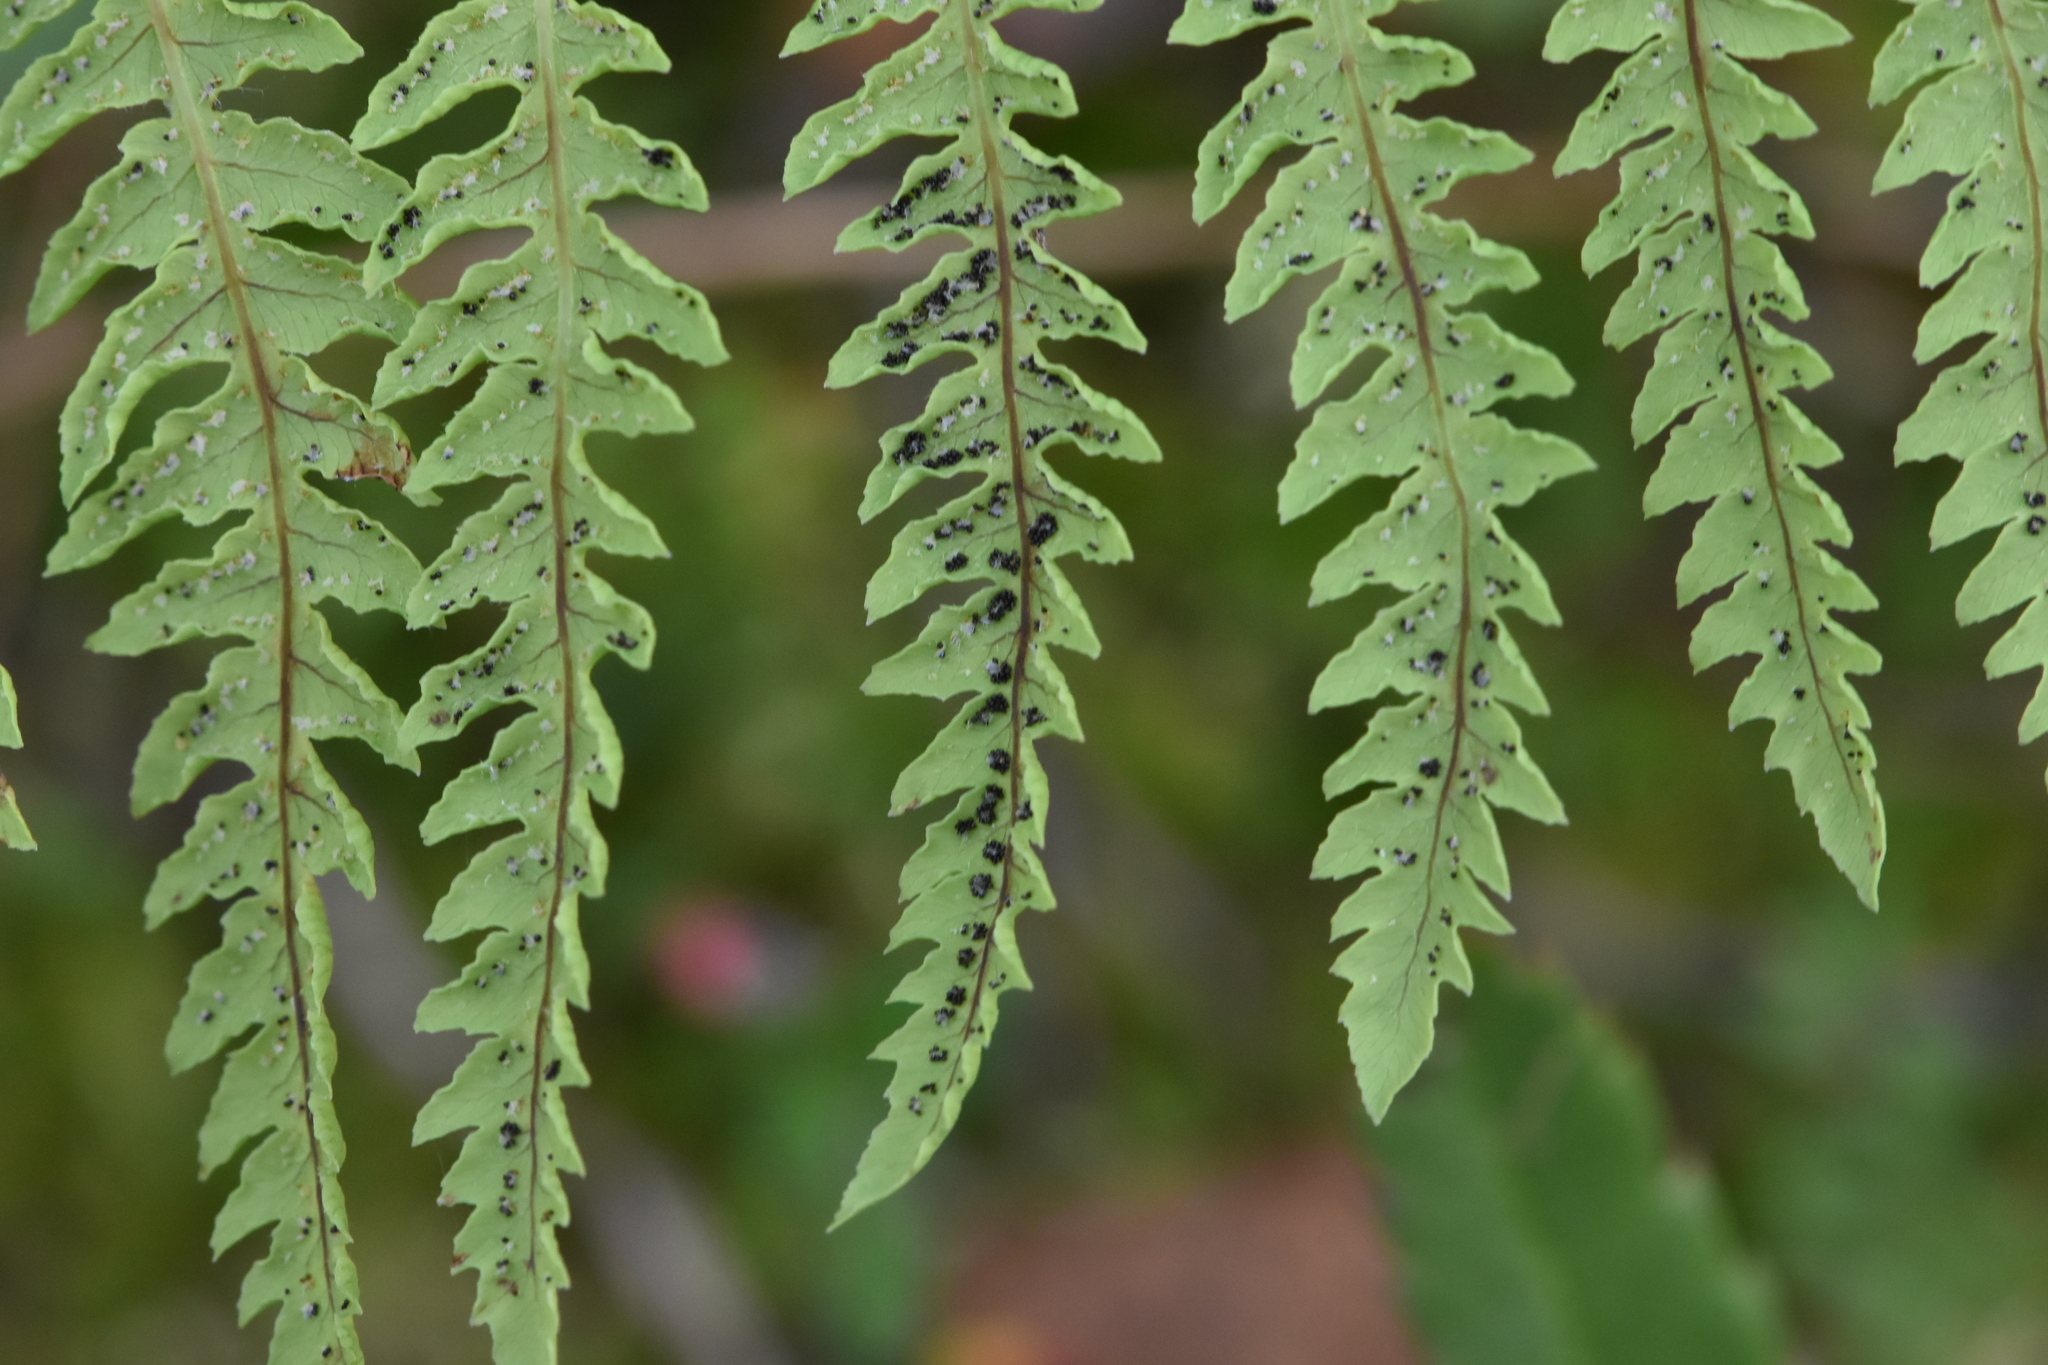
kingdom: Plantae
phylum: Tracheophyta
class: Polypodiopsida
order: Polypodiales
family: Thelypteridaceae
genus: Thelypteris
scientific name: Thelypteris palustris
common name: Marsh fern
